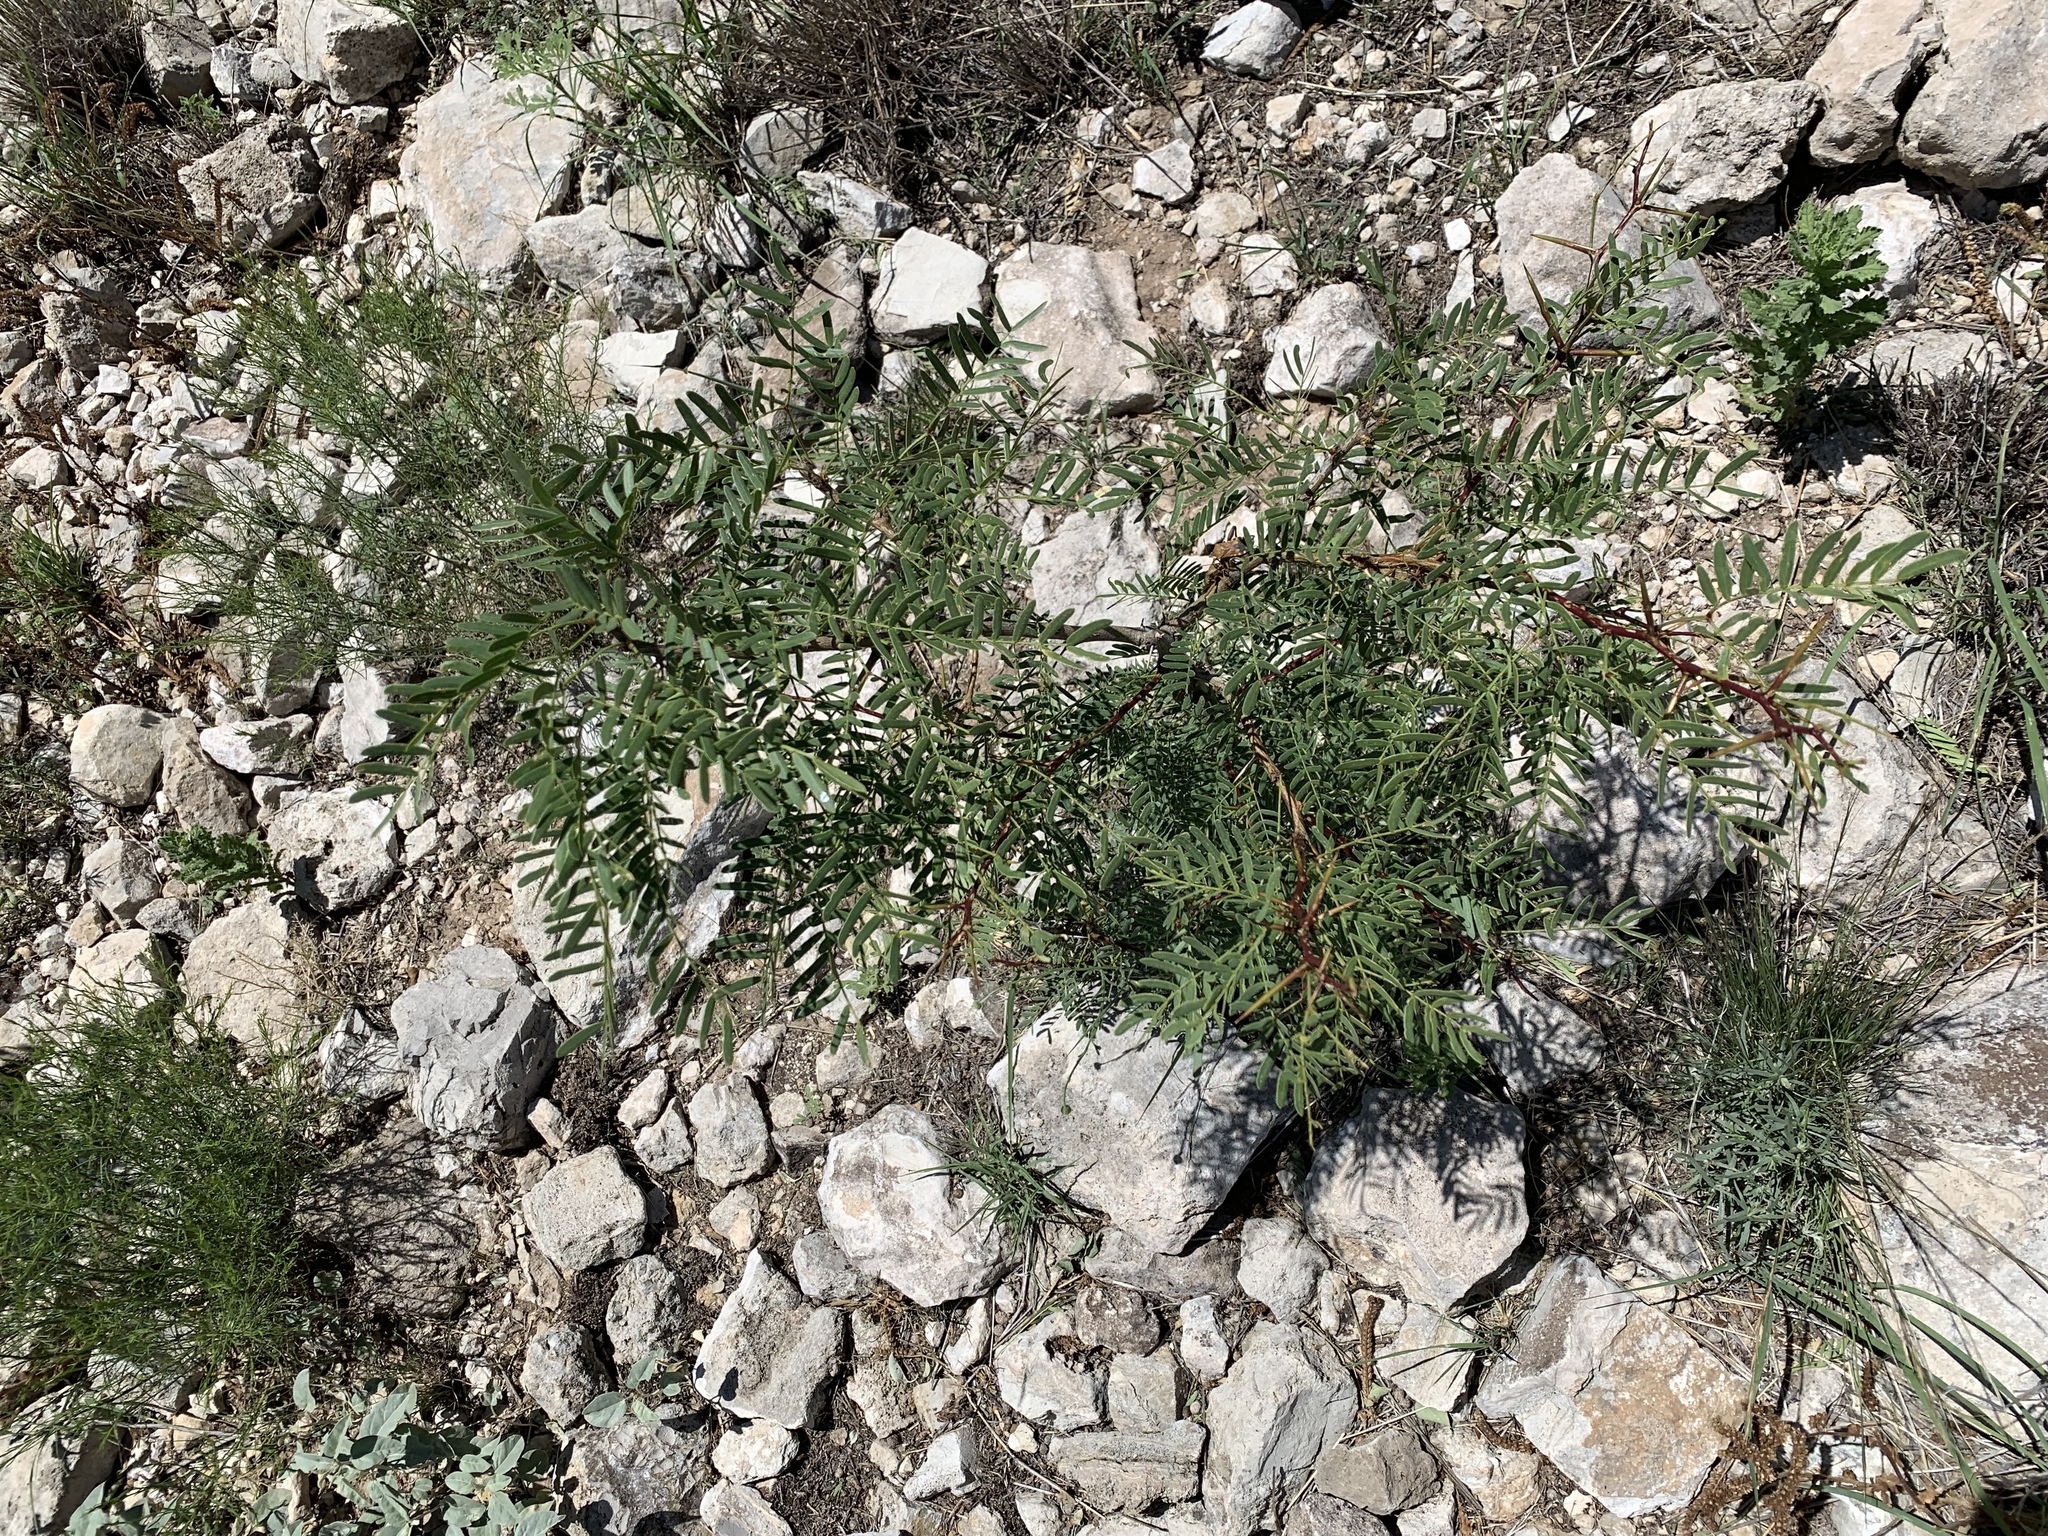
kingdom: Plantae
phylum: Tracheophyta
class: Magnoliopsida
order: Fabales
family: Fabaceae
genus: Prosopis
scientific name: Prosopis glandulosa
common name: Honey mesquite
